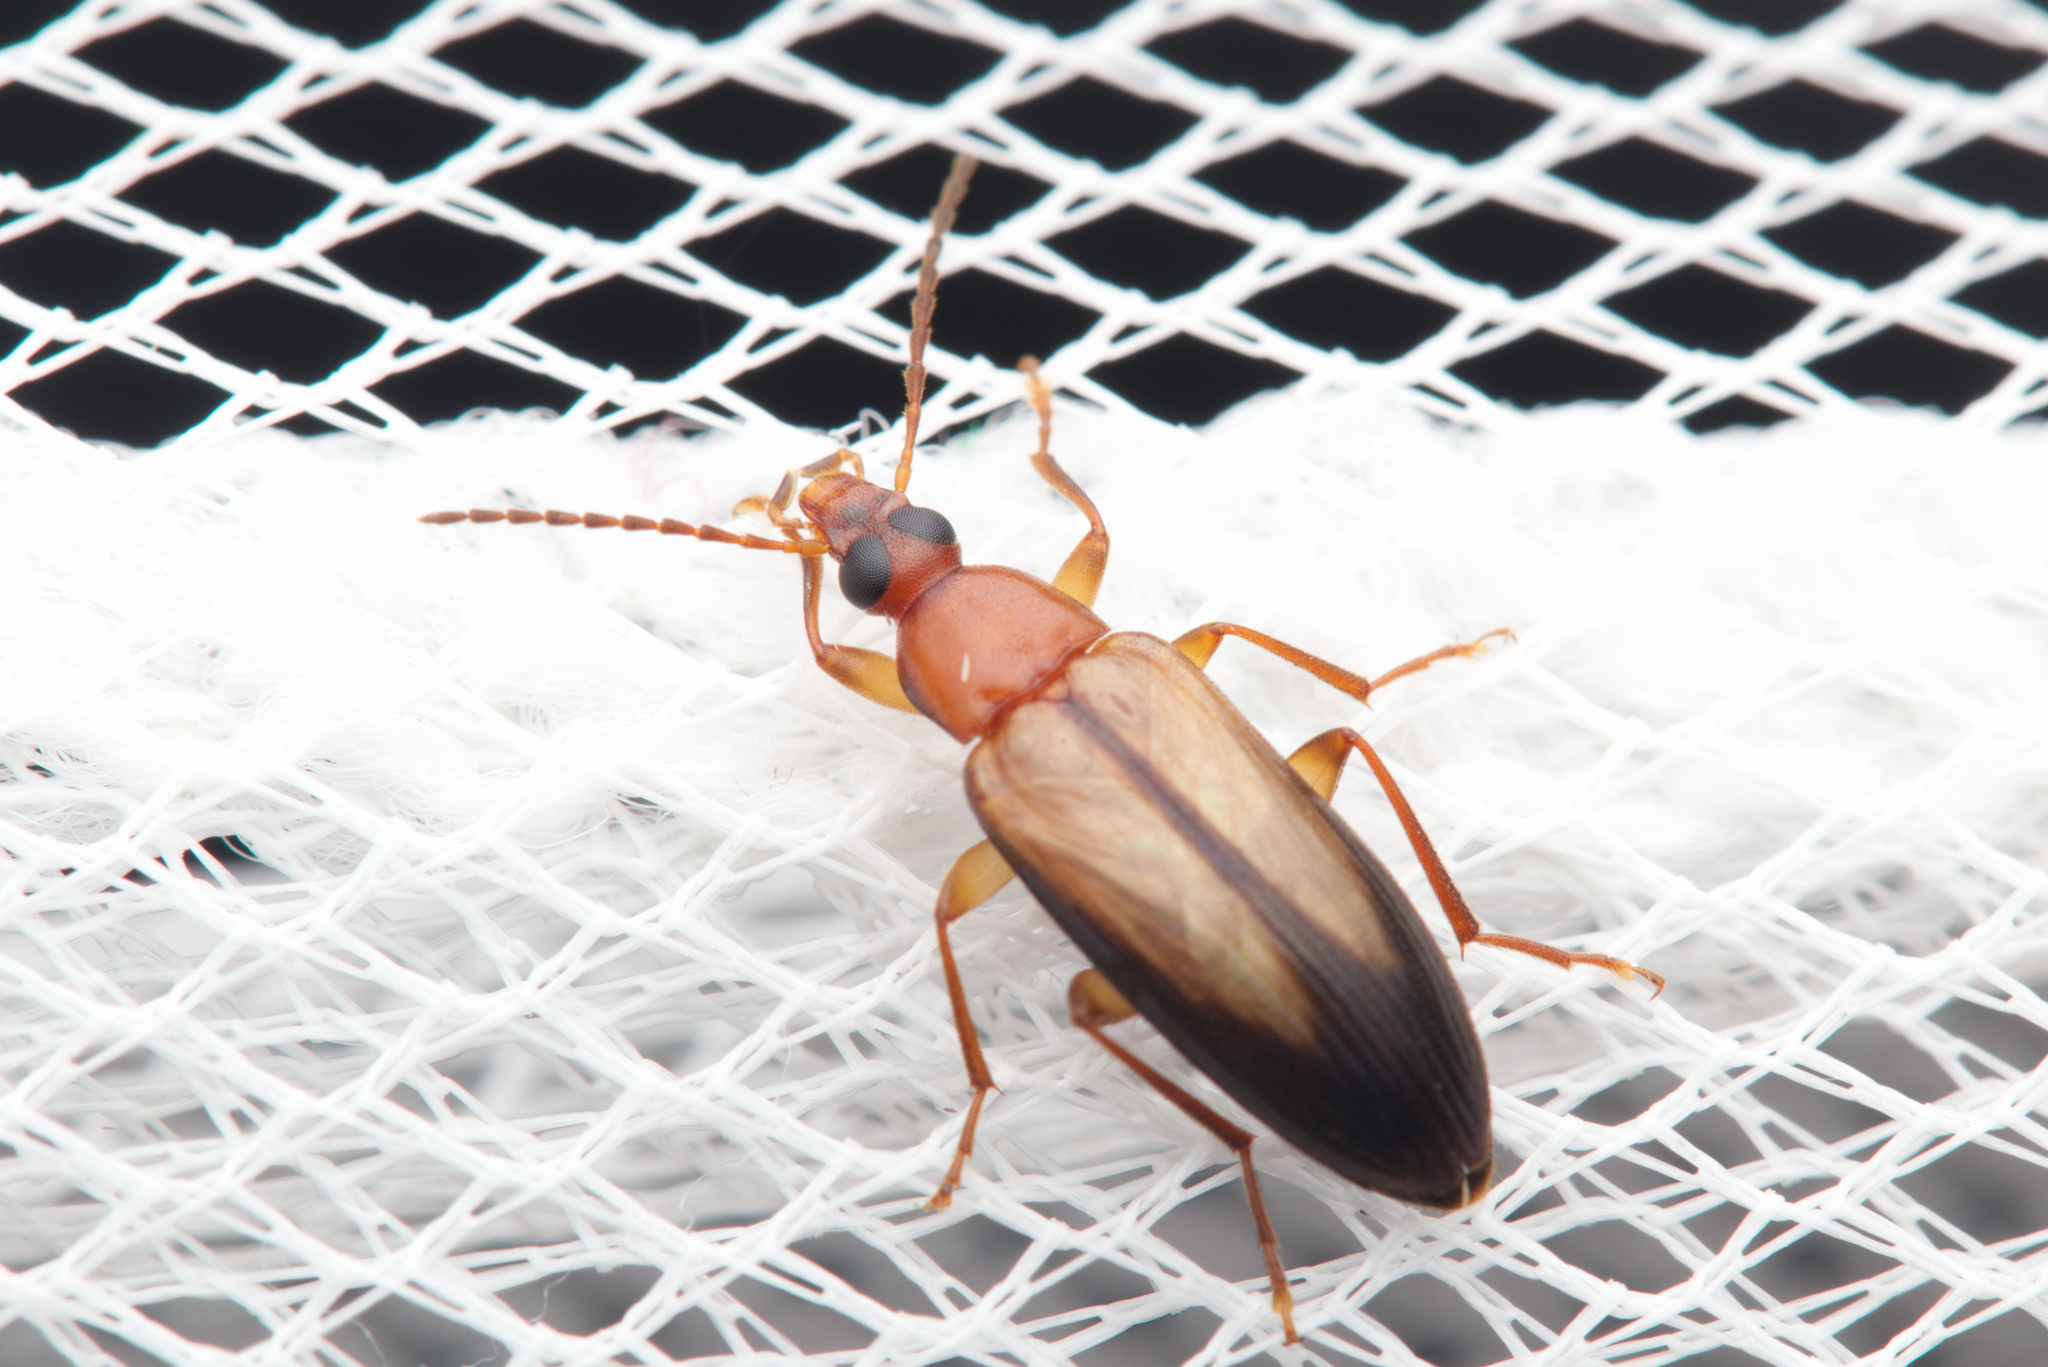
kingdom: Animalia
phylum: Arthropoda
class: Insecta
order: Coleoptera
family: Tenebrionidae
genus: Euomma
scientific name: Euomma
